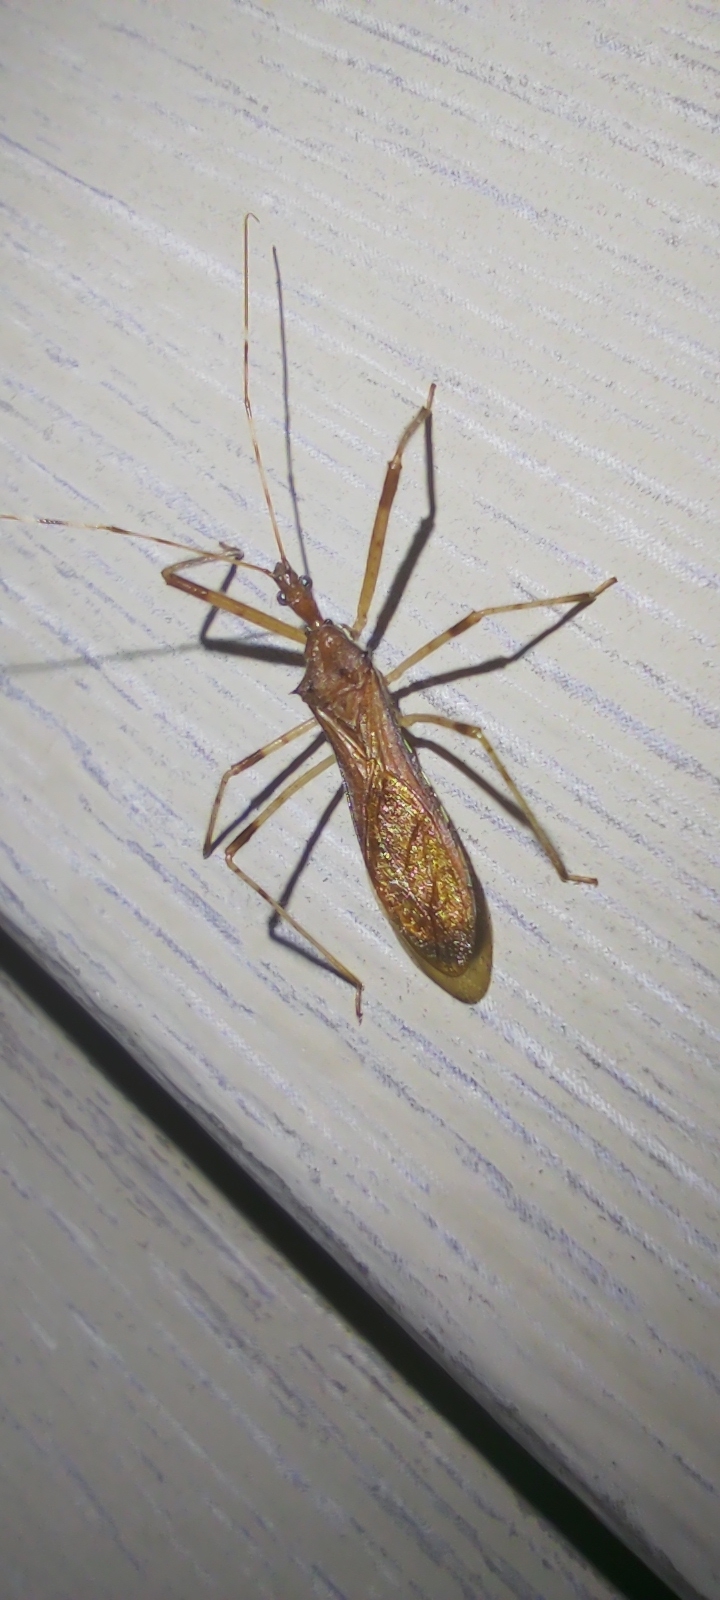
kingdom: Animalia
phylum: Arthropoda
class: Insecta
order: Hemiptera
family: Reduviidae
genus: Rocconota
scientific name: Rocconota annulicornis
